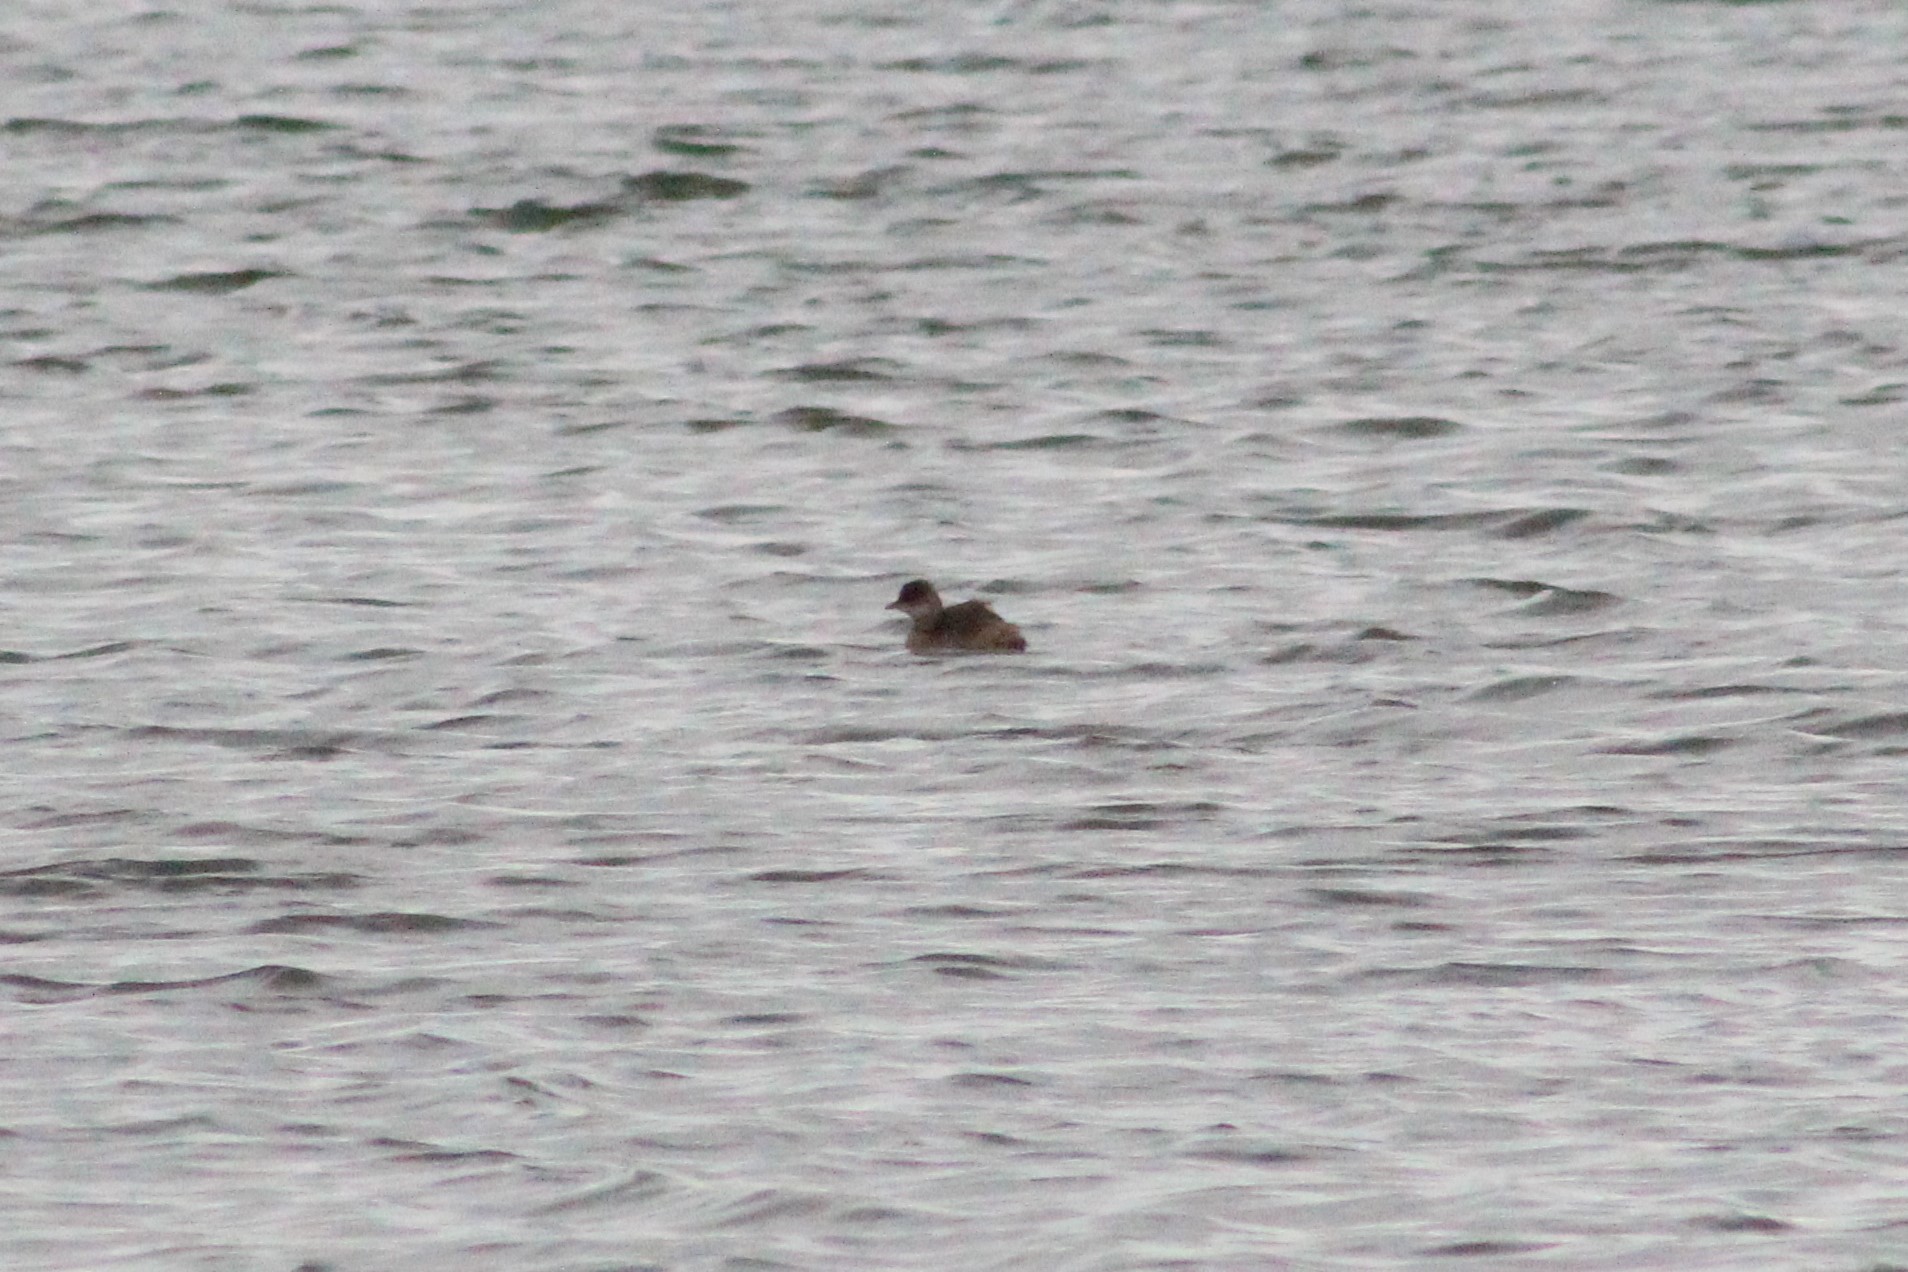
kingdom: Animalia
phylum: Chordata
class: Aves
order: Podicipediformes
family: Podicipedidae
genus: Tachybaptus
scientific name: Tachybaptus ruficollis
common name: Little grebe
